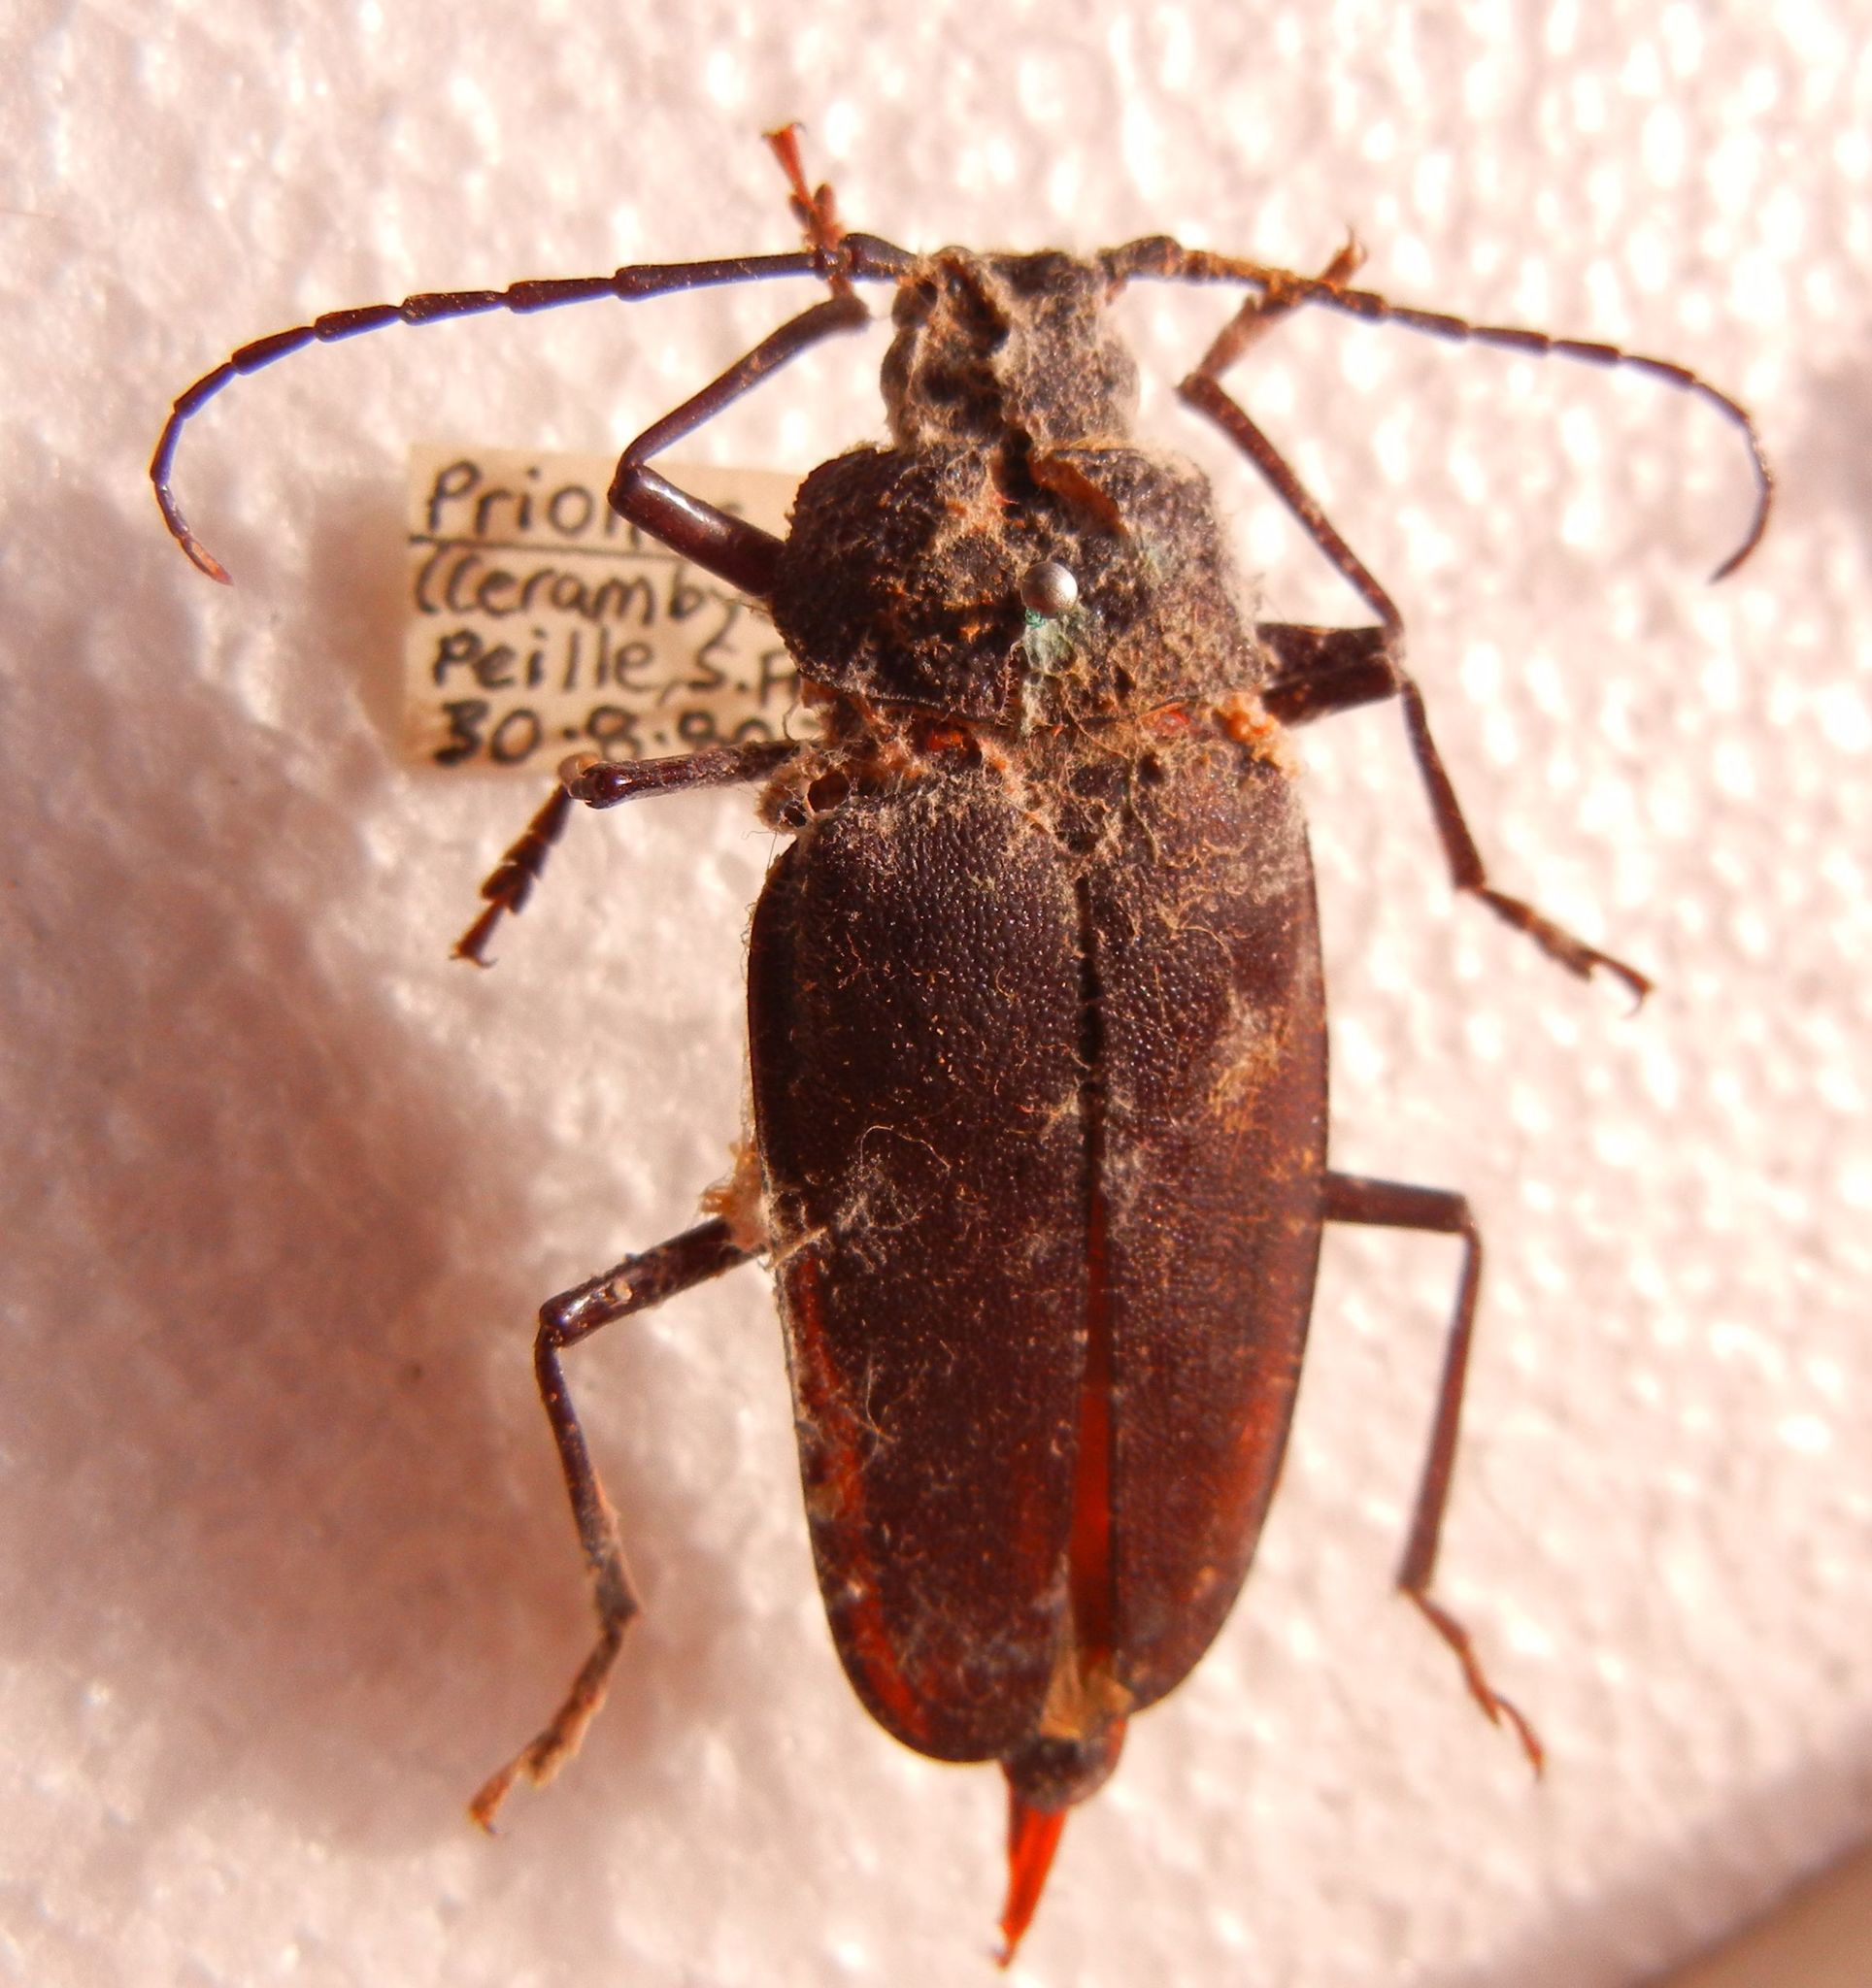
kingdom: Animalia
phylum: Arthropoda
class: Insecta
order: Coleoptera
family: Cerambycidae
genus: Ergates
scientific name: Ergates faber
